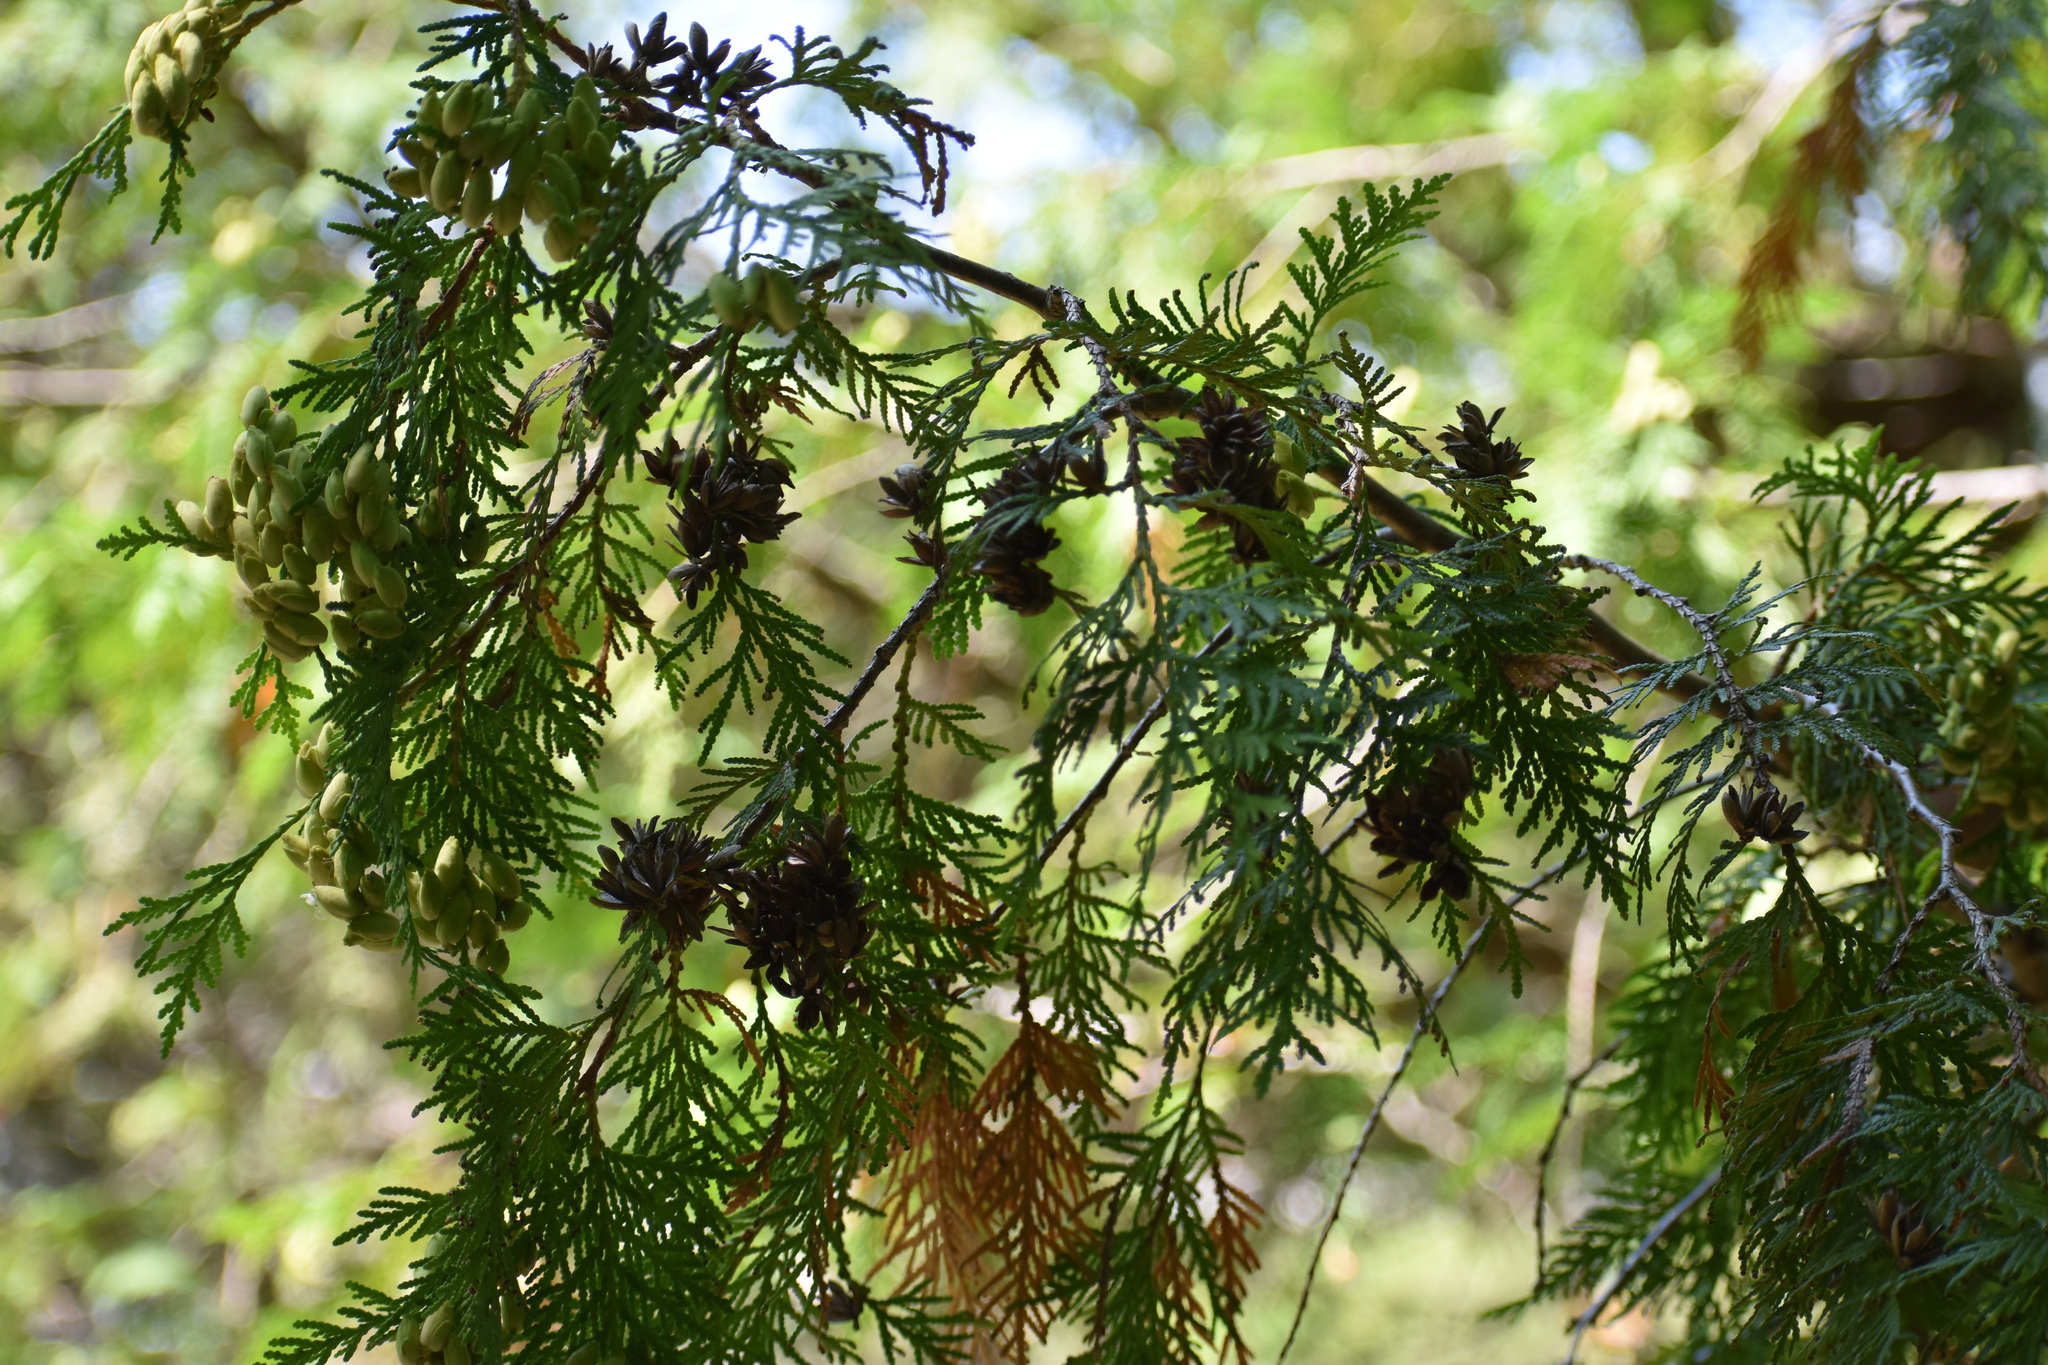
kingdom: Plantae
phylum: Tracheophyta
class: Pinopsida
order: Pinales
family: Cupressaceae
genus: Thuja
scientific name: Thuja occidentalis
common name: Northern white-cedar
